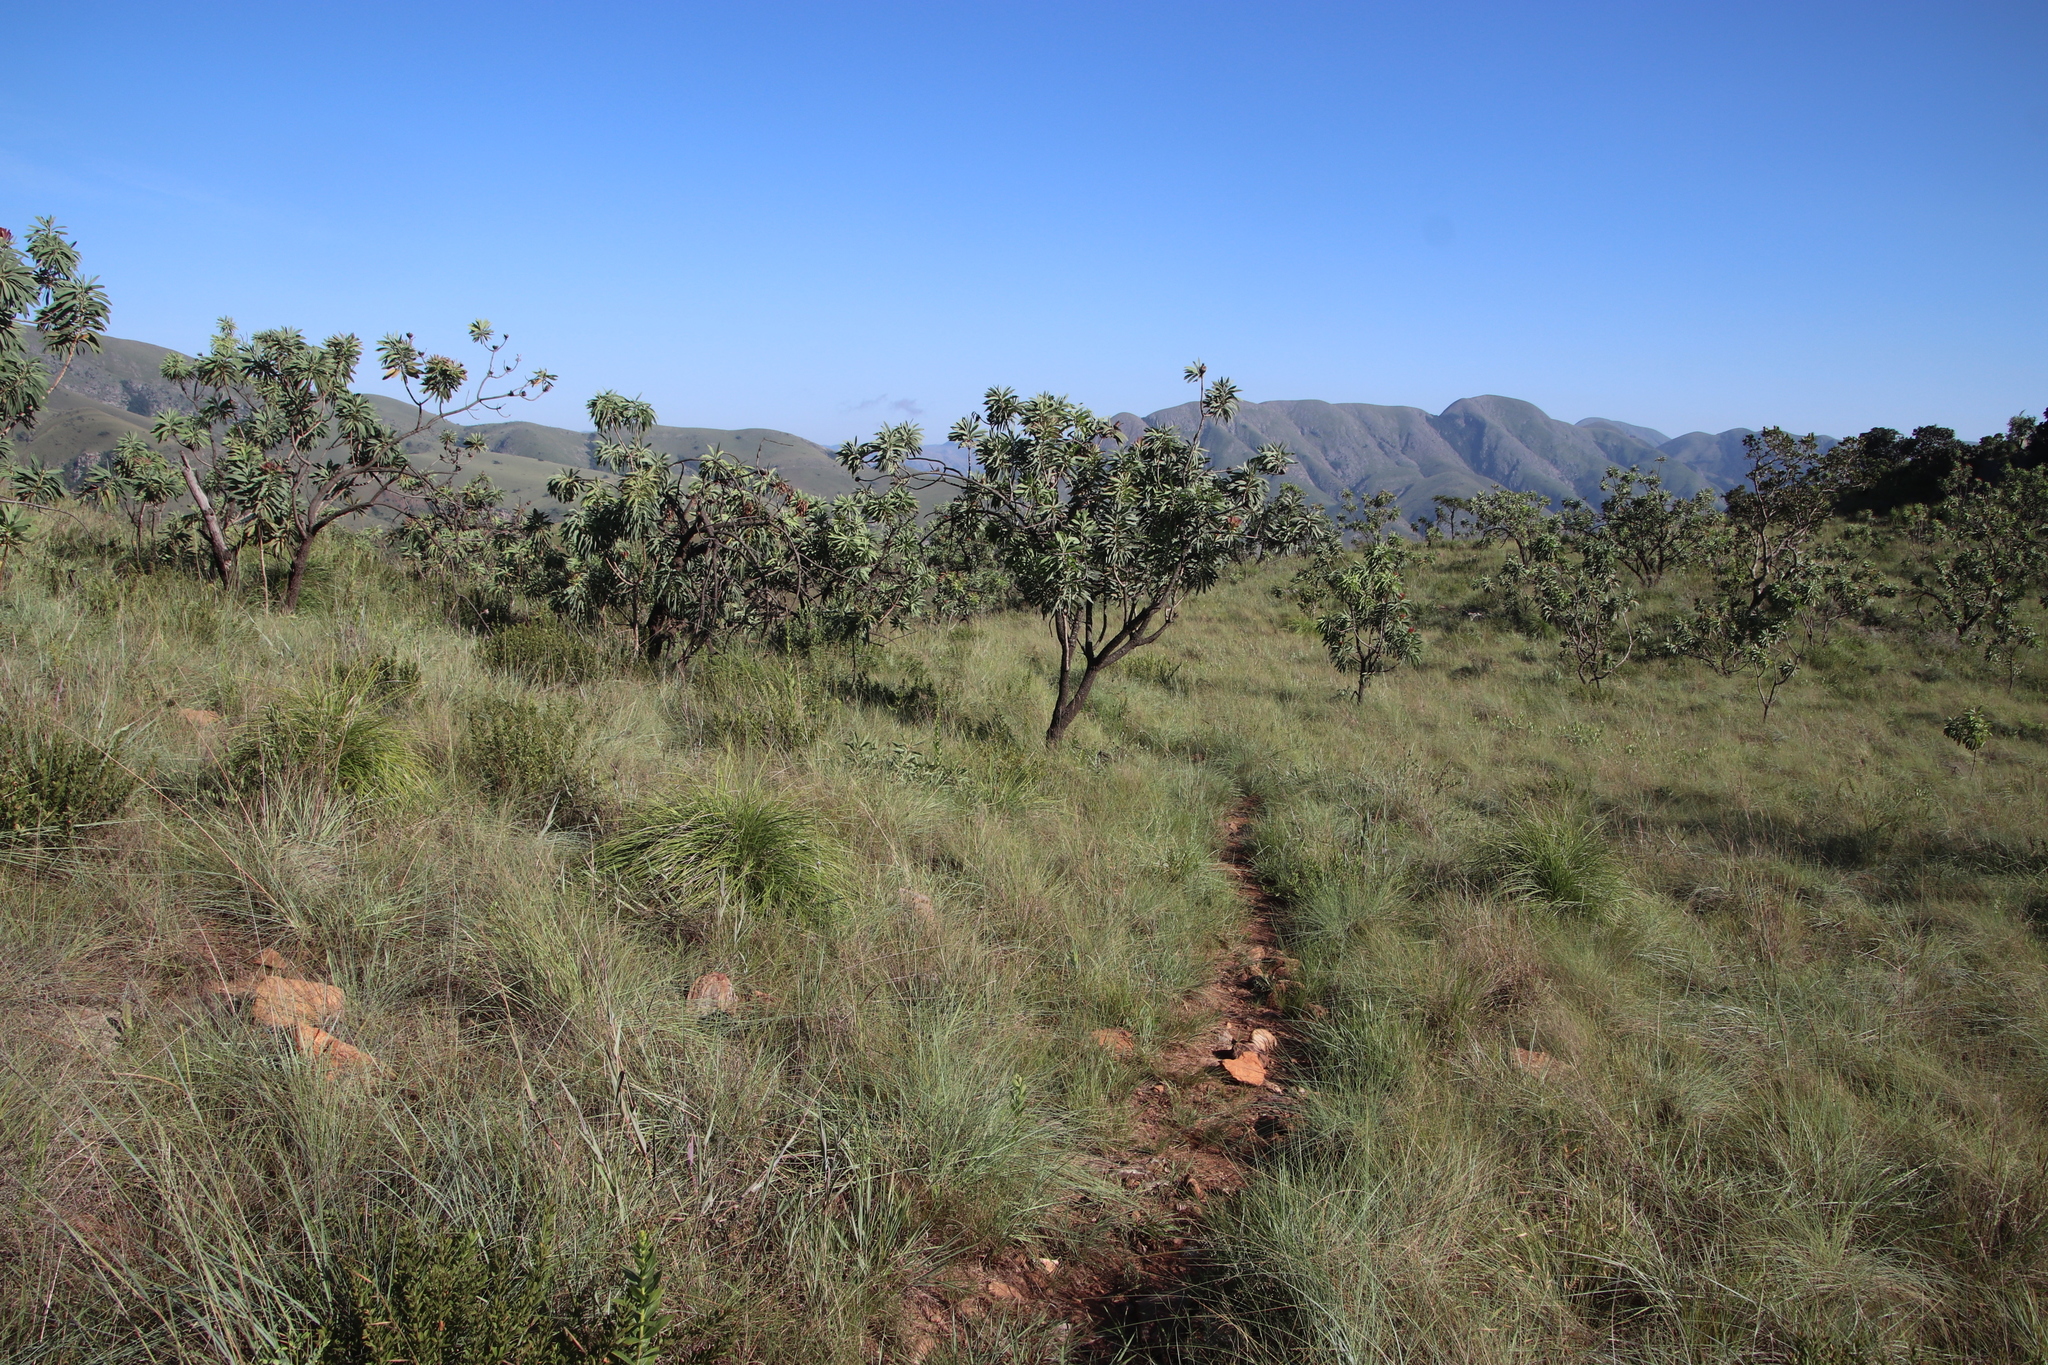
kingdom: Plantae
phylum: Tracheophyta
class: Magnoliopsida
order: Proteales
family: Proteaceae
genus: Protea
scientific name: Protea caffra
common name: Common sugarbush
